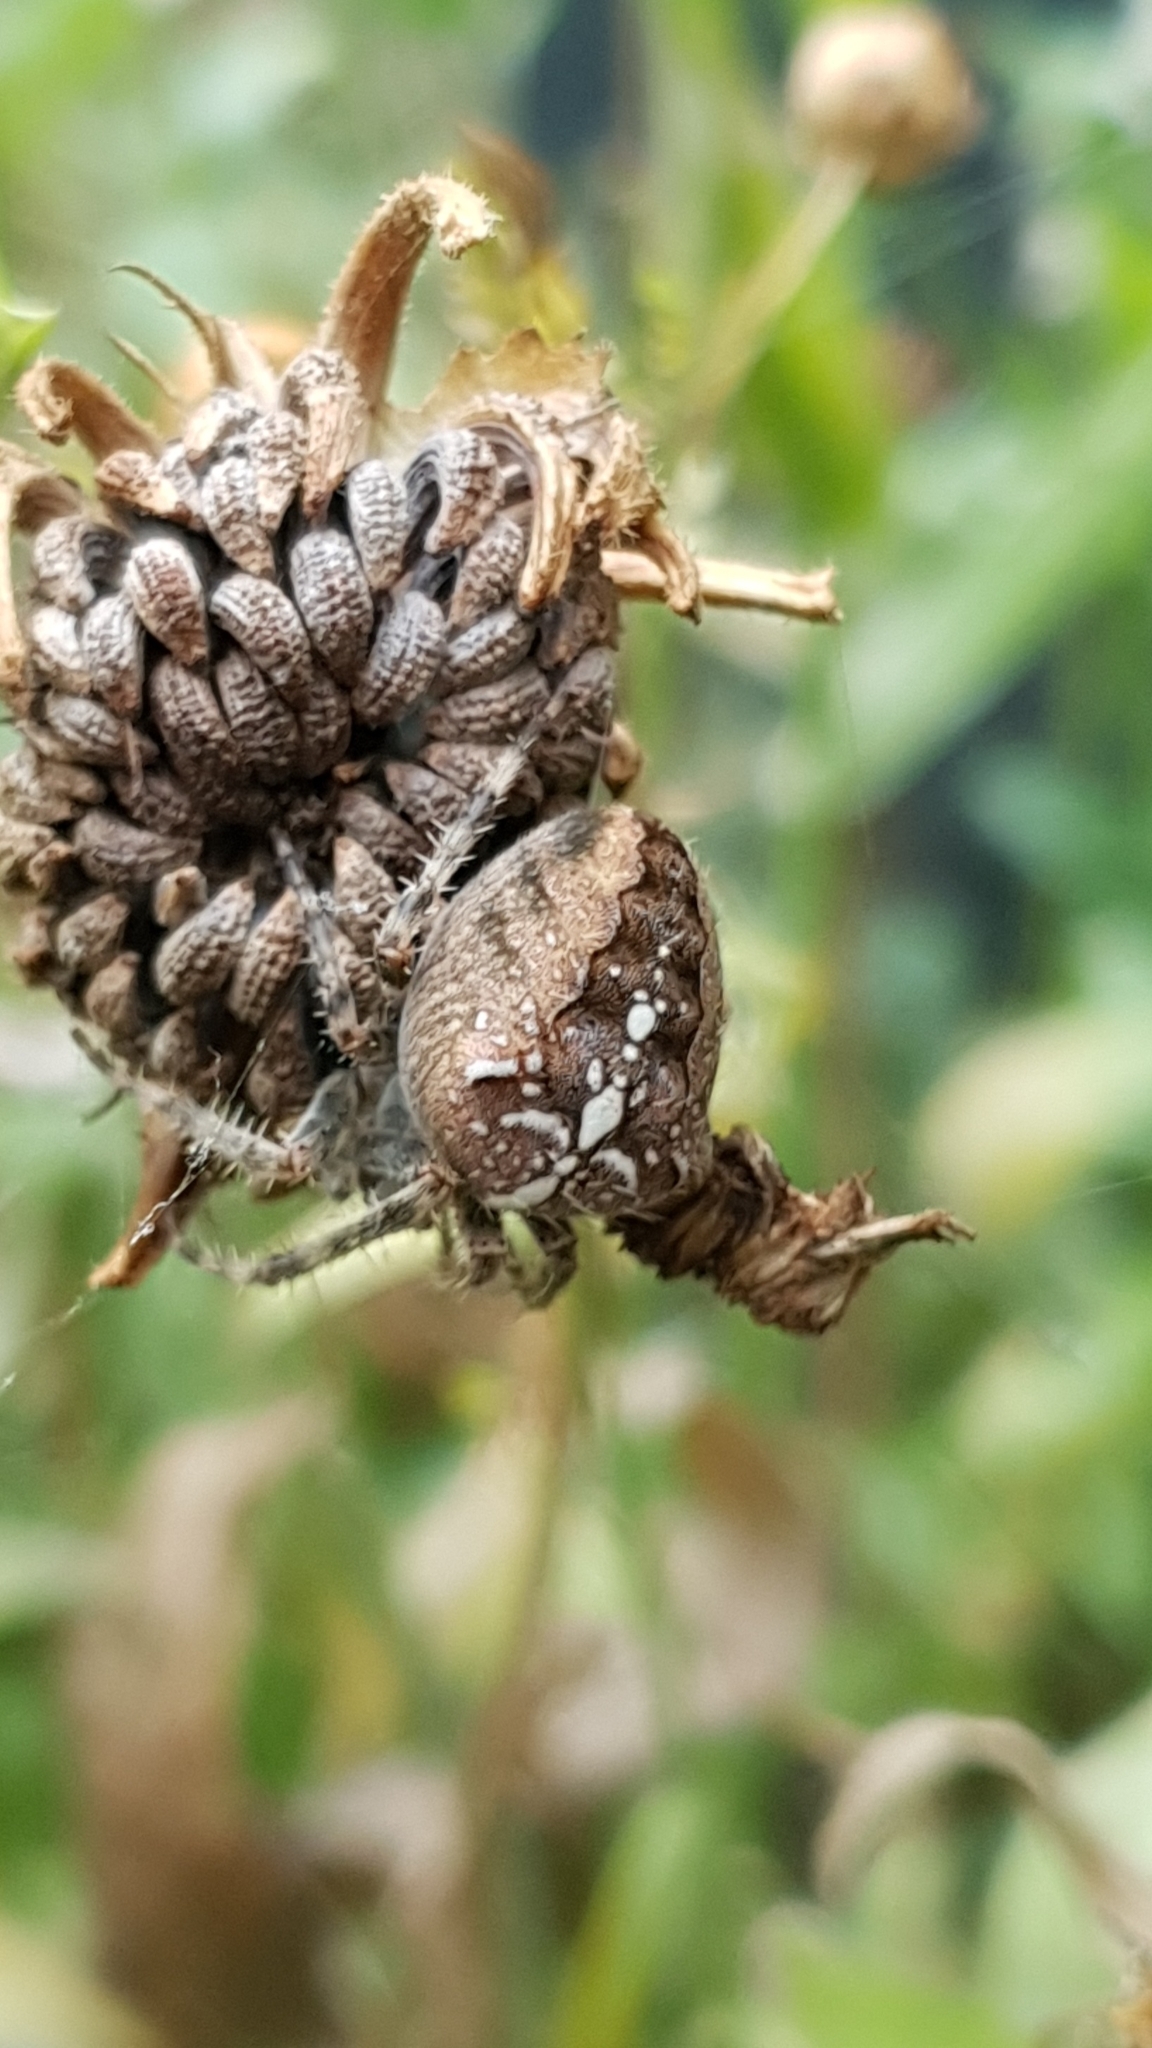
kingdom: Animalia
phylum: Arthropoda
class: Arachnida
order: Araneae
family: Araneidae
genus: Araneus
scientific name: Araneus diadematus
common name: Cross orbweaver
